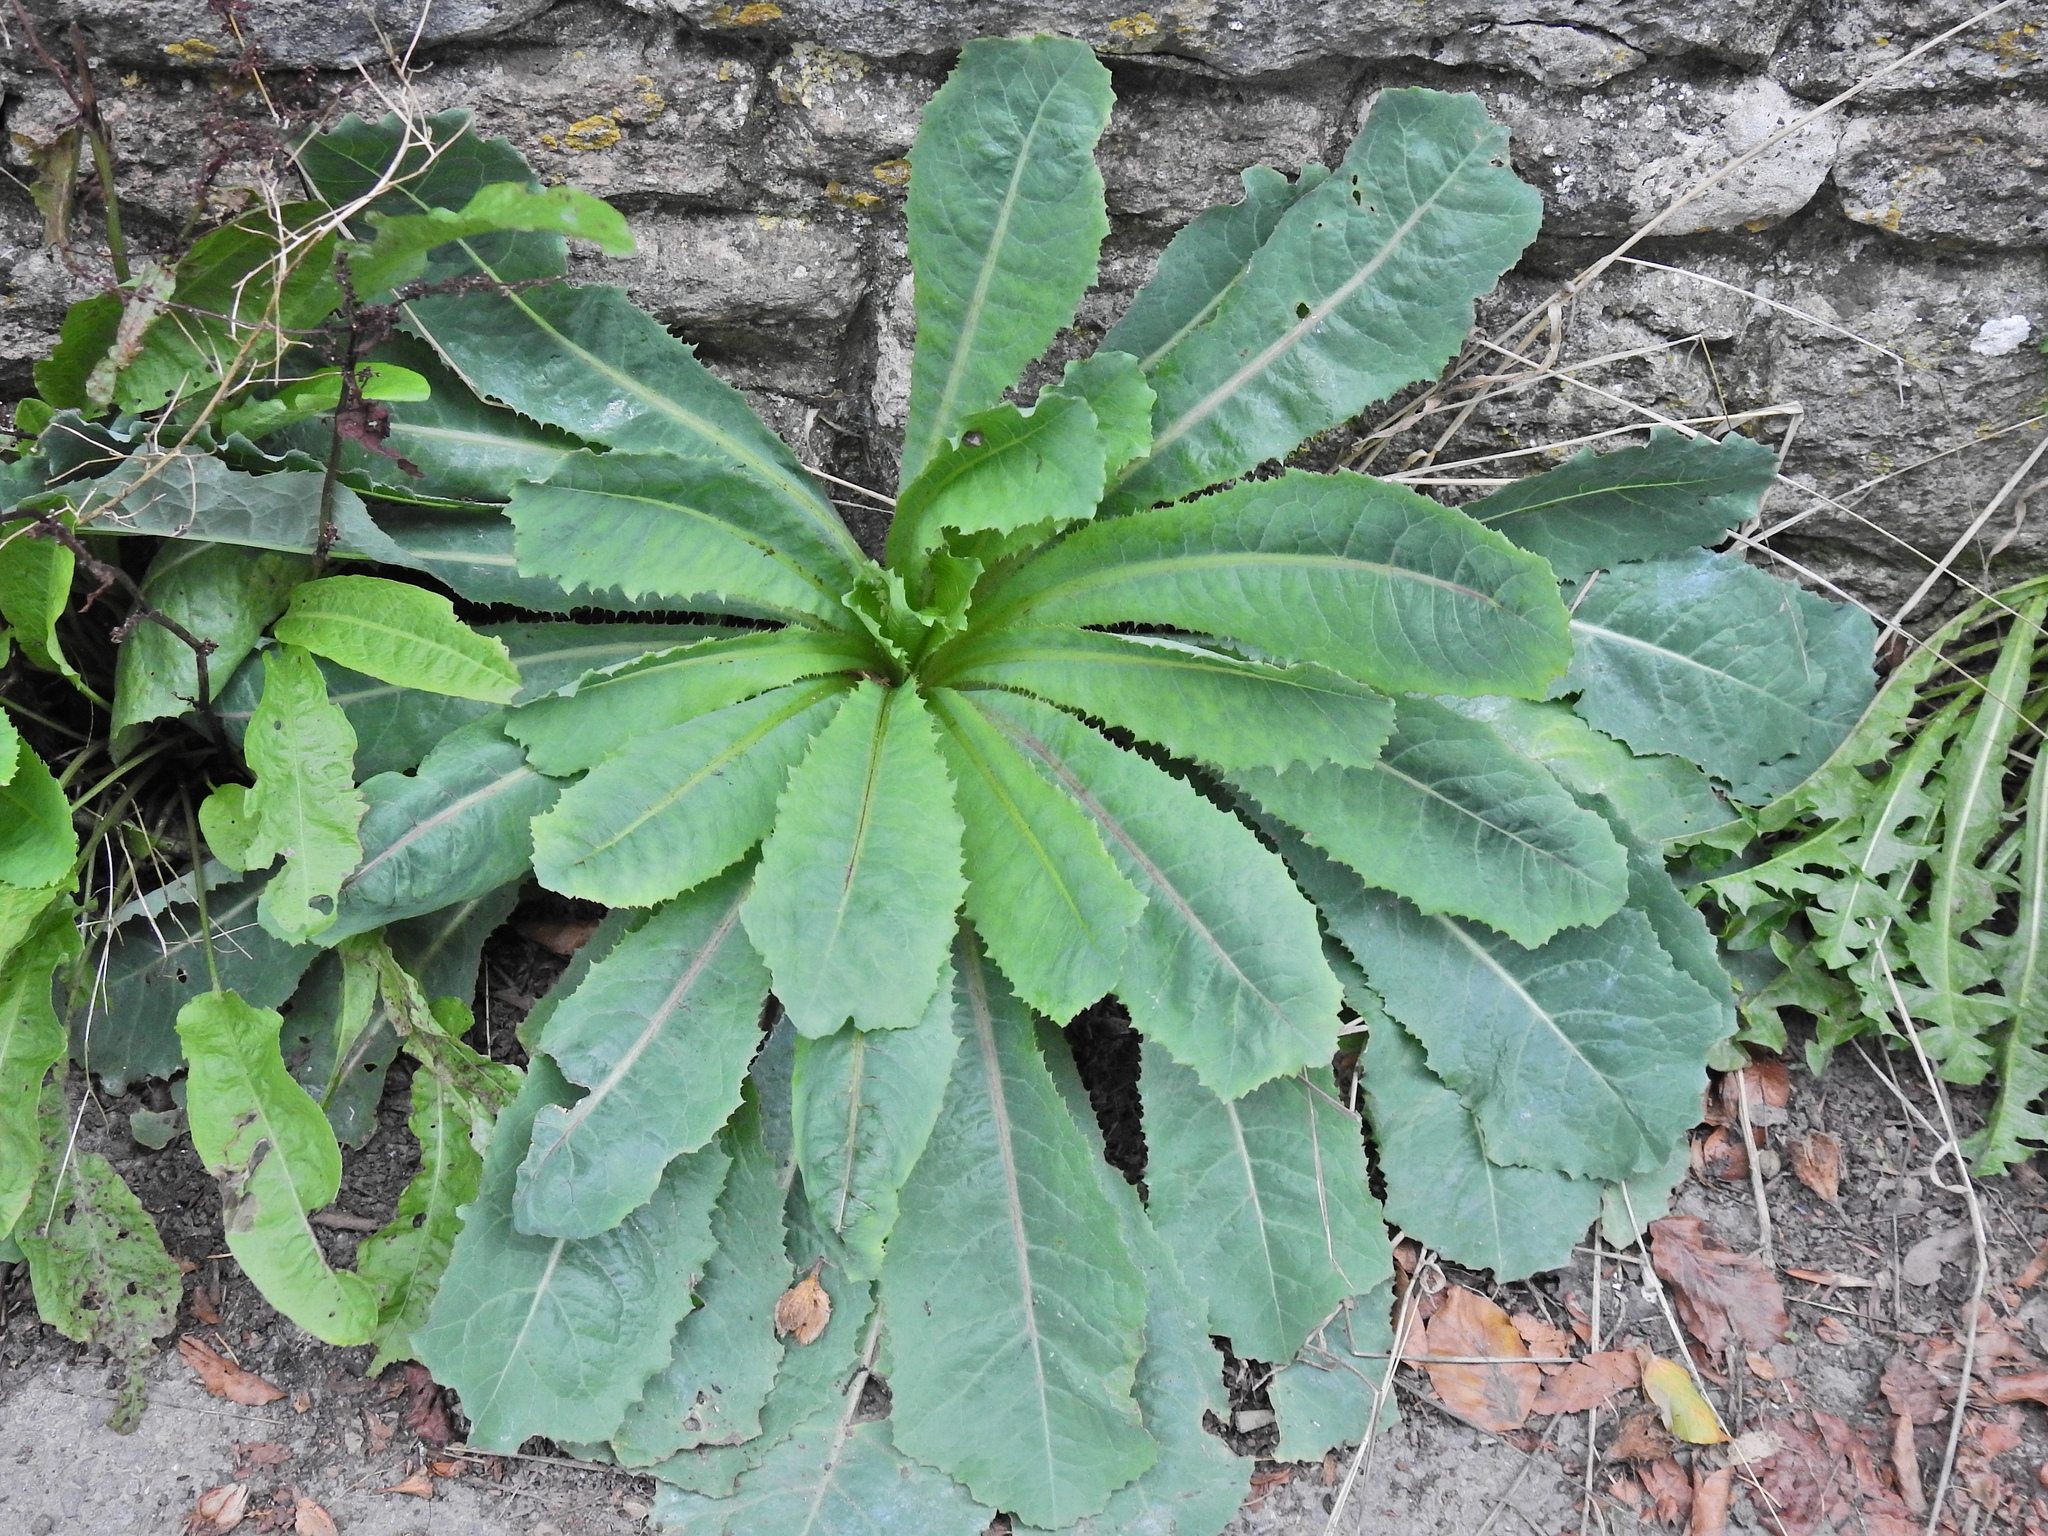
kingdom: Plantae
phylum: Tracheophyta
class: Magnoliopsida
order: Asterales
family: Asteraceae
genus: Lactuca
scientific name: Lactuca virosa
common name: Great lettuce
